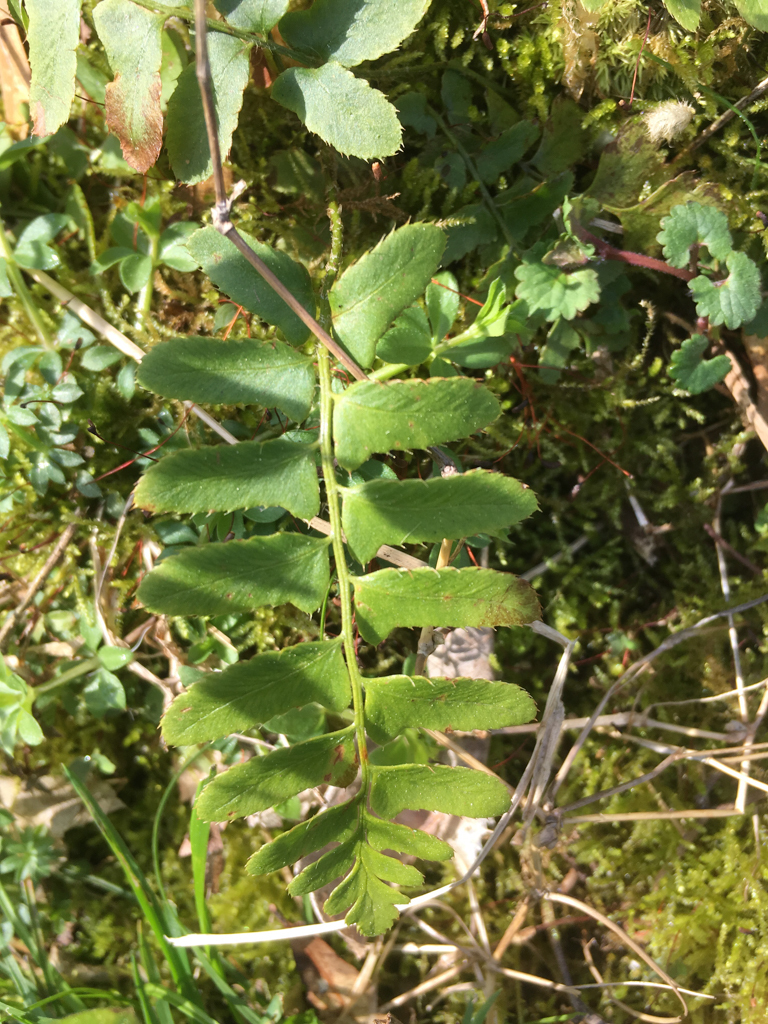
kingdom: Plantae
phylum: Tracheophyta
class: Polypodiopsida
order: Polypodiales
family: Dryopteridaceae
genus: Polystichum
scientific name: Polystichum acrostichoides
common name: Christmas fern
